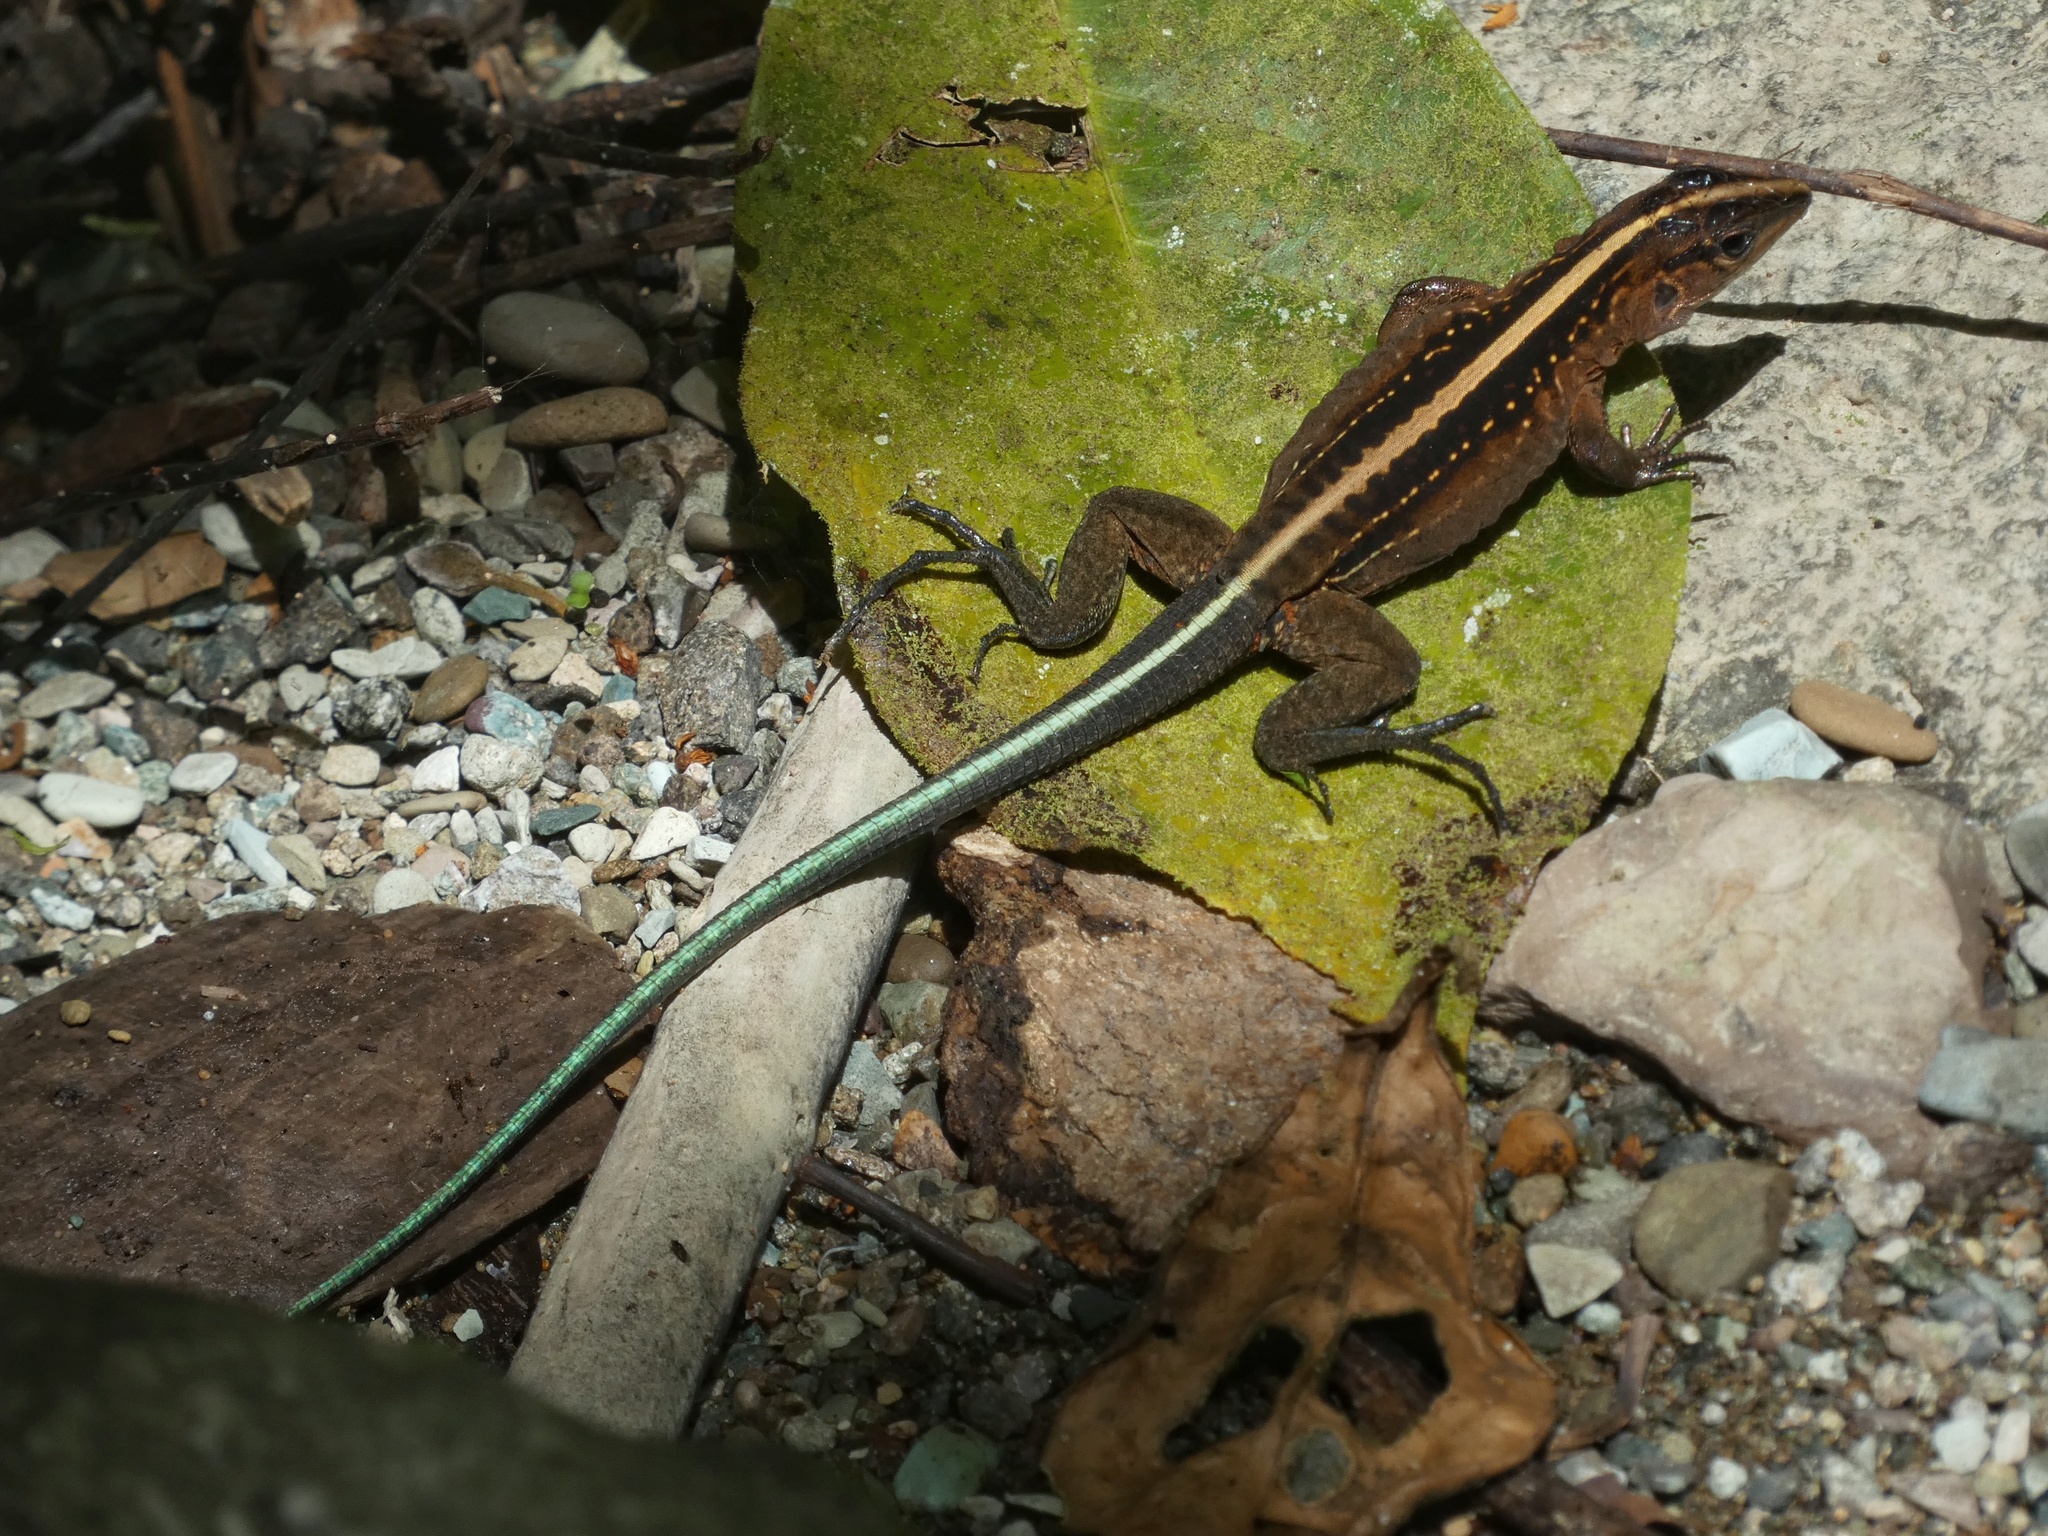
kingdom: Animalia
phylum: Chordata
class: Squamata
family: Teiidae
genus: Holcosus
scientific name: Holcosus festivus
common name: Middle american ameiva
